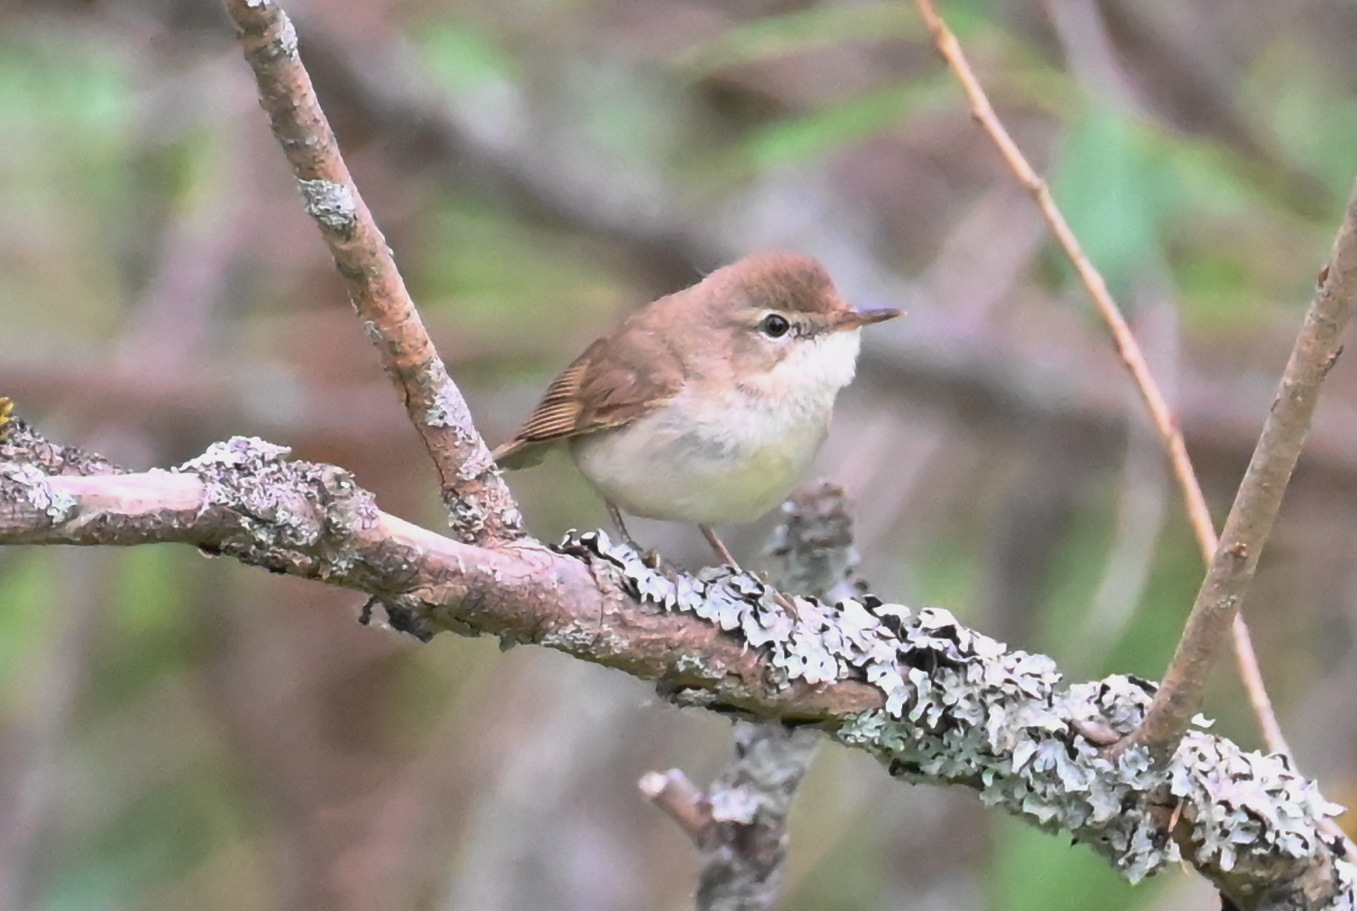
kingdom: Animalia
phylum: Chordata
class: Aves
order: Passeriformes
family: Acrocephalidae
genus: Acrocephalus
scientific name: Acrocephalus dumetorum
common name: Blyth's reed warbler
